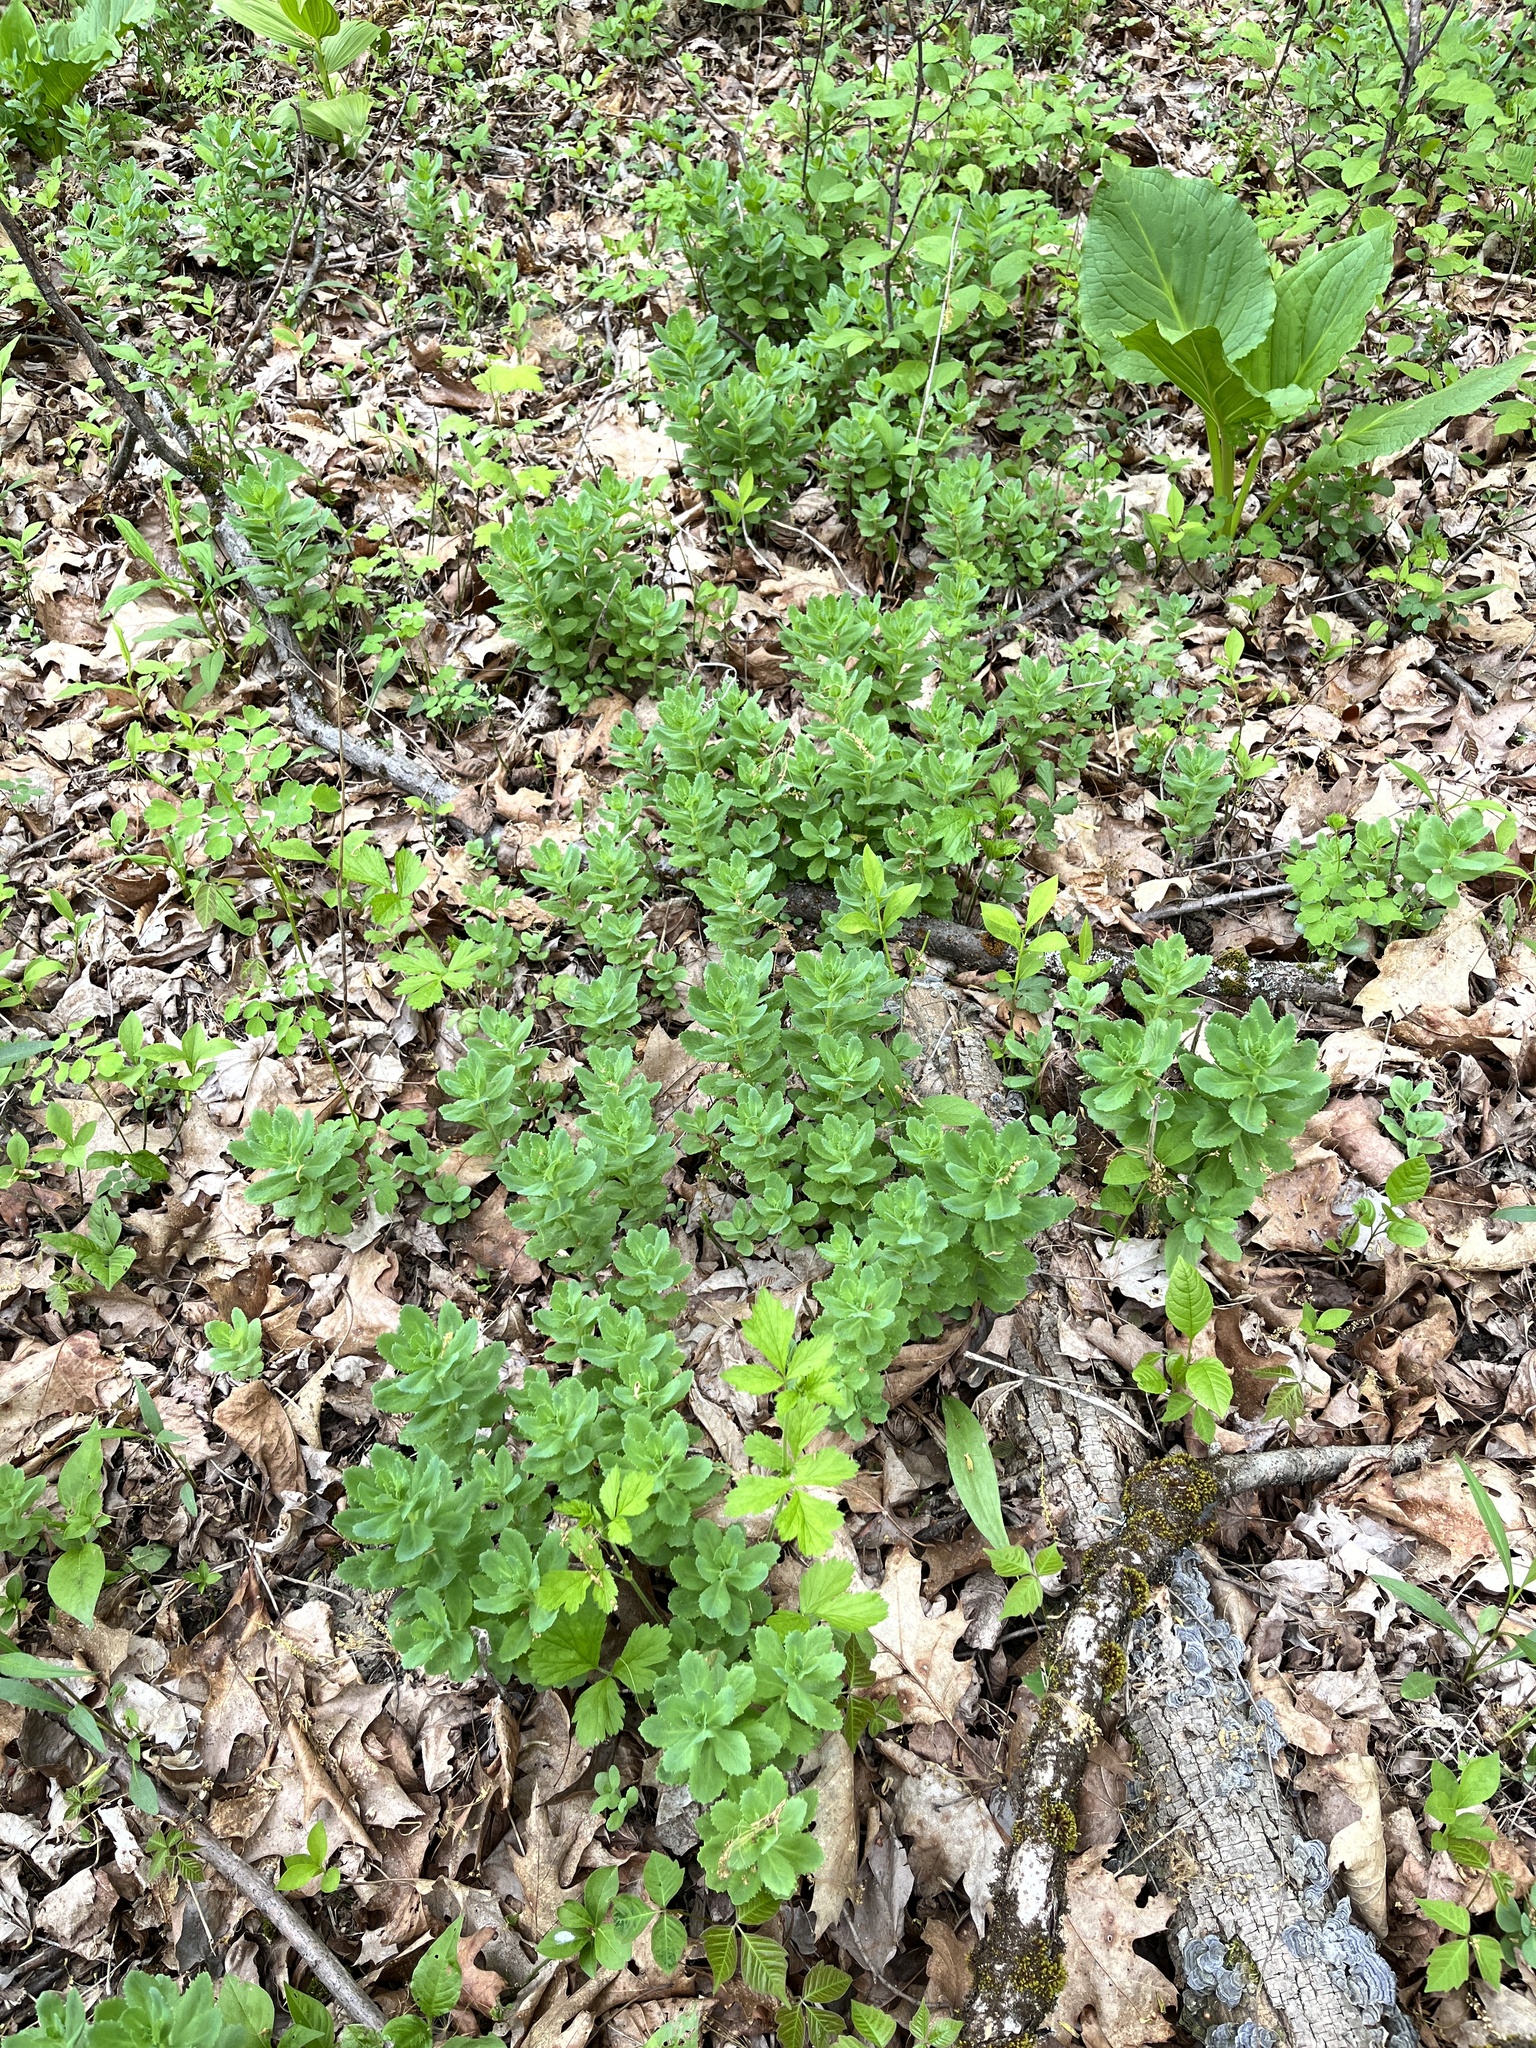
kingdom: Plantae
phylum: Tracheophyta
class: Magnoliopsida
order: Saxifragales
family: Crassulaceae
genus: Hylotelephium
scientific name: Hylotelephium telephium
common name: Live-forever
